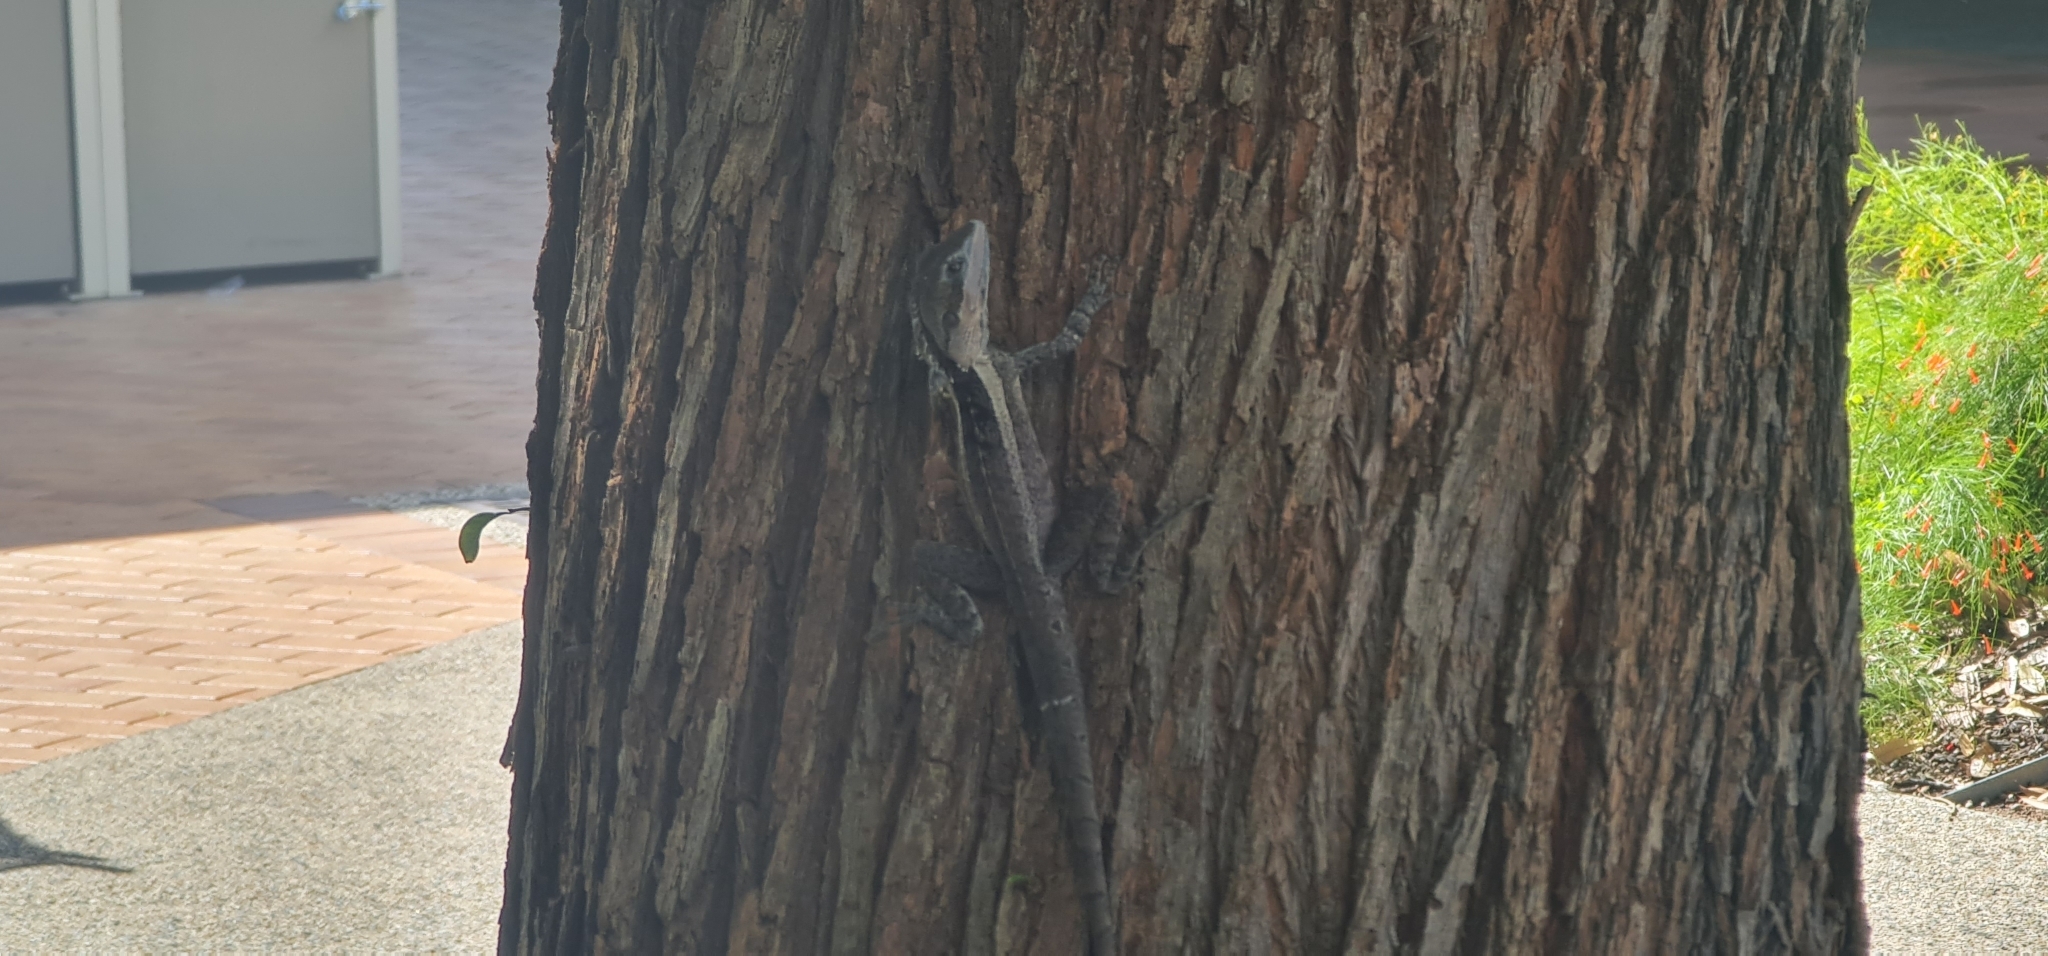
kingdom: Animalia
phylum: Chordata
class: Squamata
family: Agamidae
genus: Tropicagama
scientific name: Tropicagama temporalis
